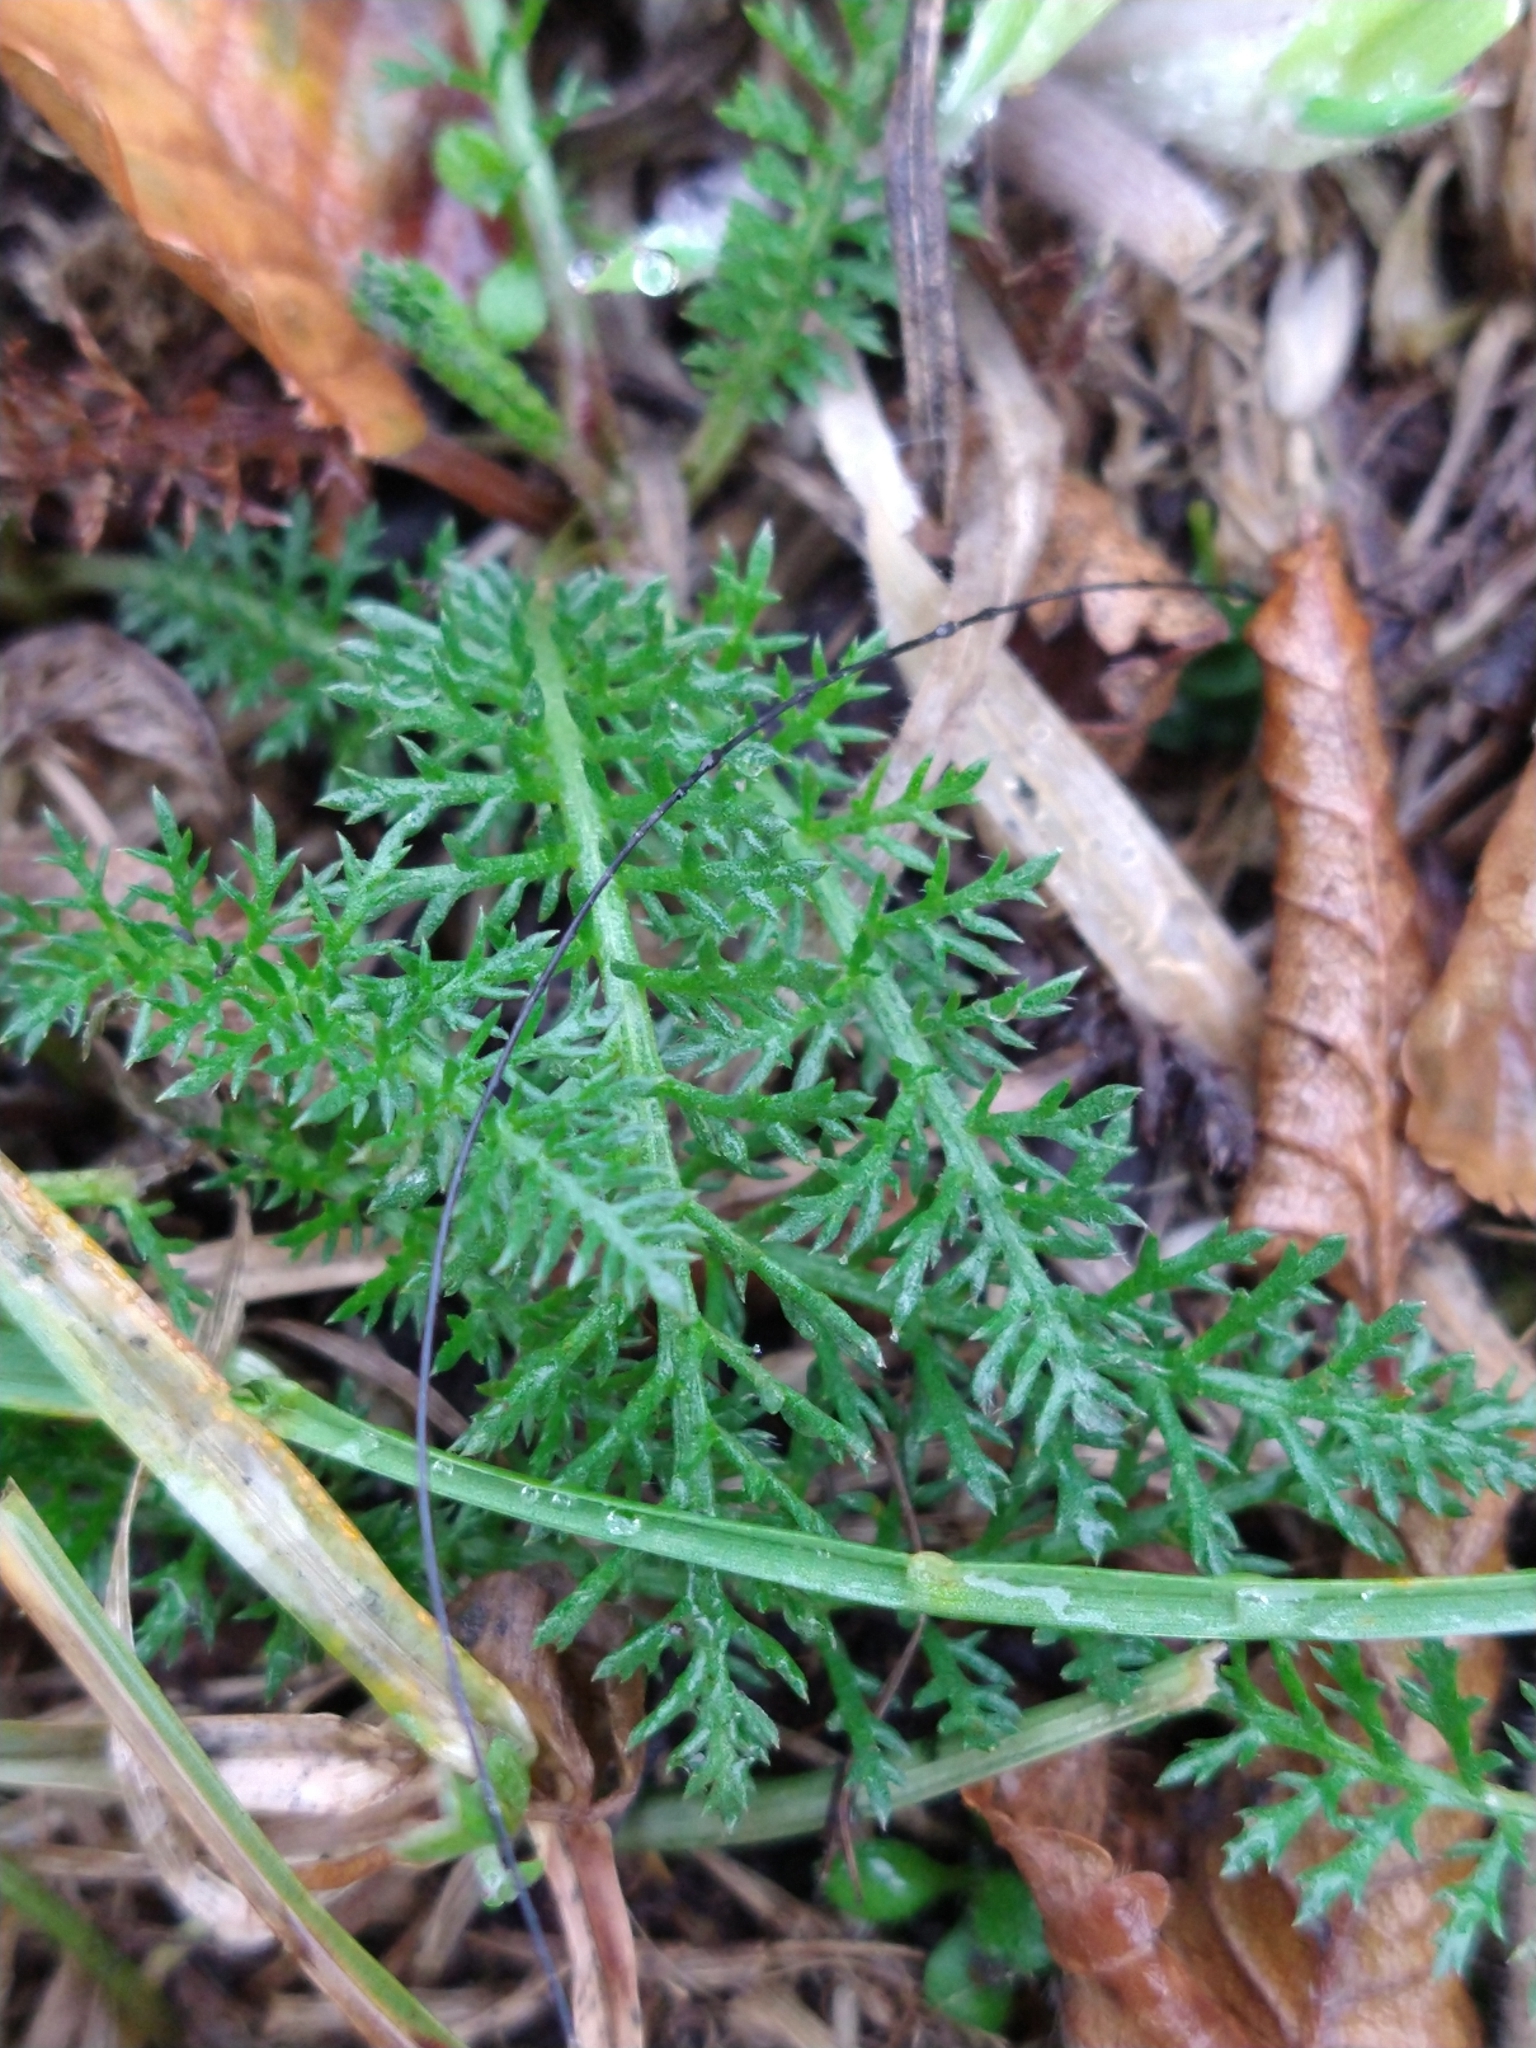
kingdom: Plantae
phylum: Tracheophyta
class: Magnoliopsida
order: Asterales
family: Asteraceae
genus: Achillea
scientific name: Achillea millefolium
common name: Yarrow
